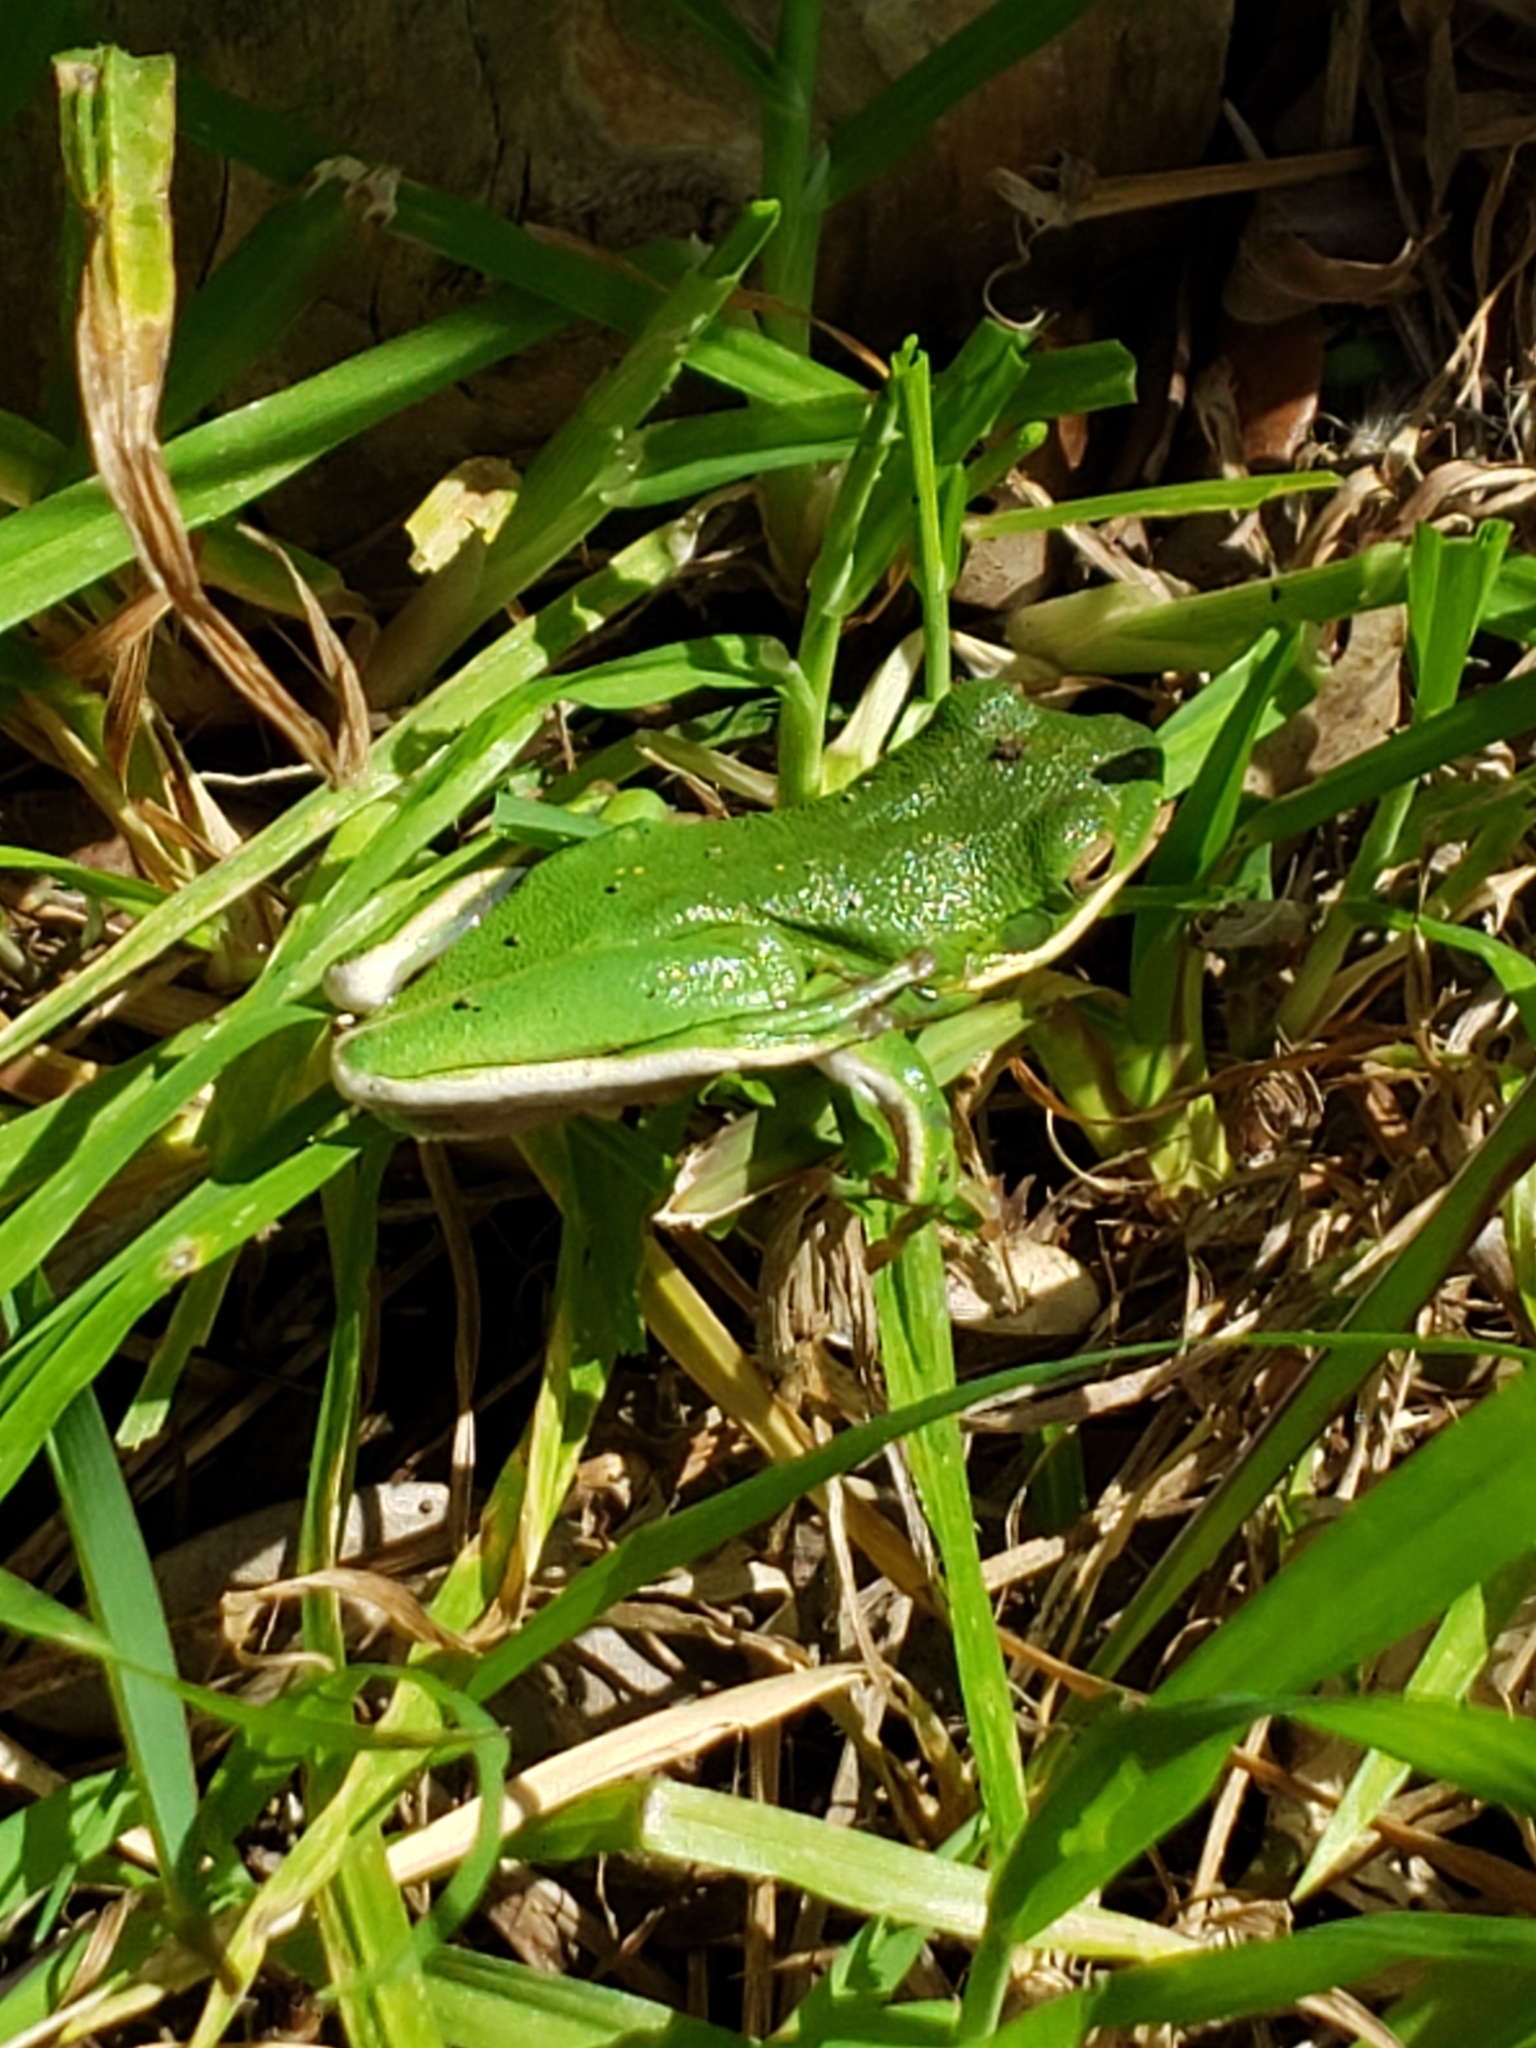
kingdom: Animalia
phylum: Chordata
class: Amphibia
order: Anura
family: Hylidae
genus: Dryophytes
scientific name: Dryophytes cinereus
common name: Green treefrog
